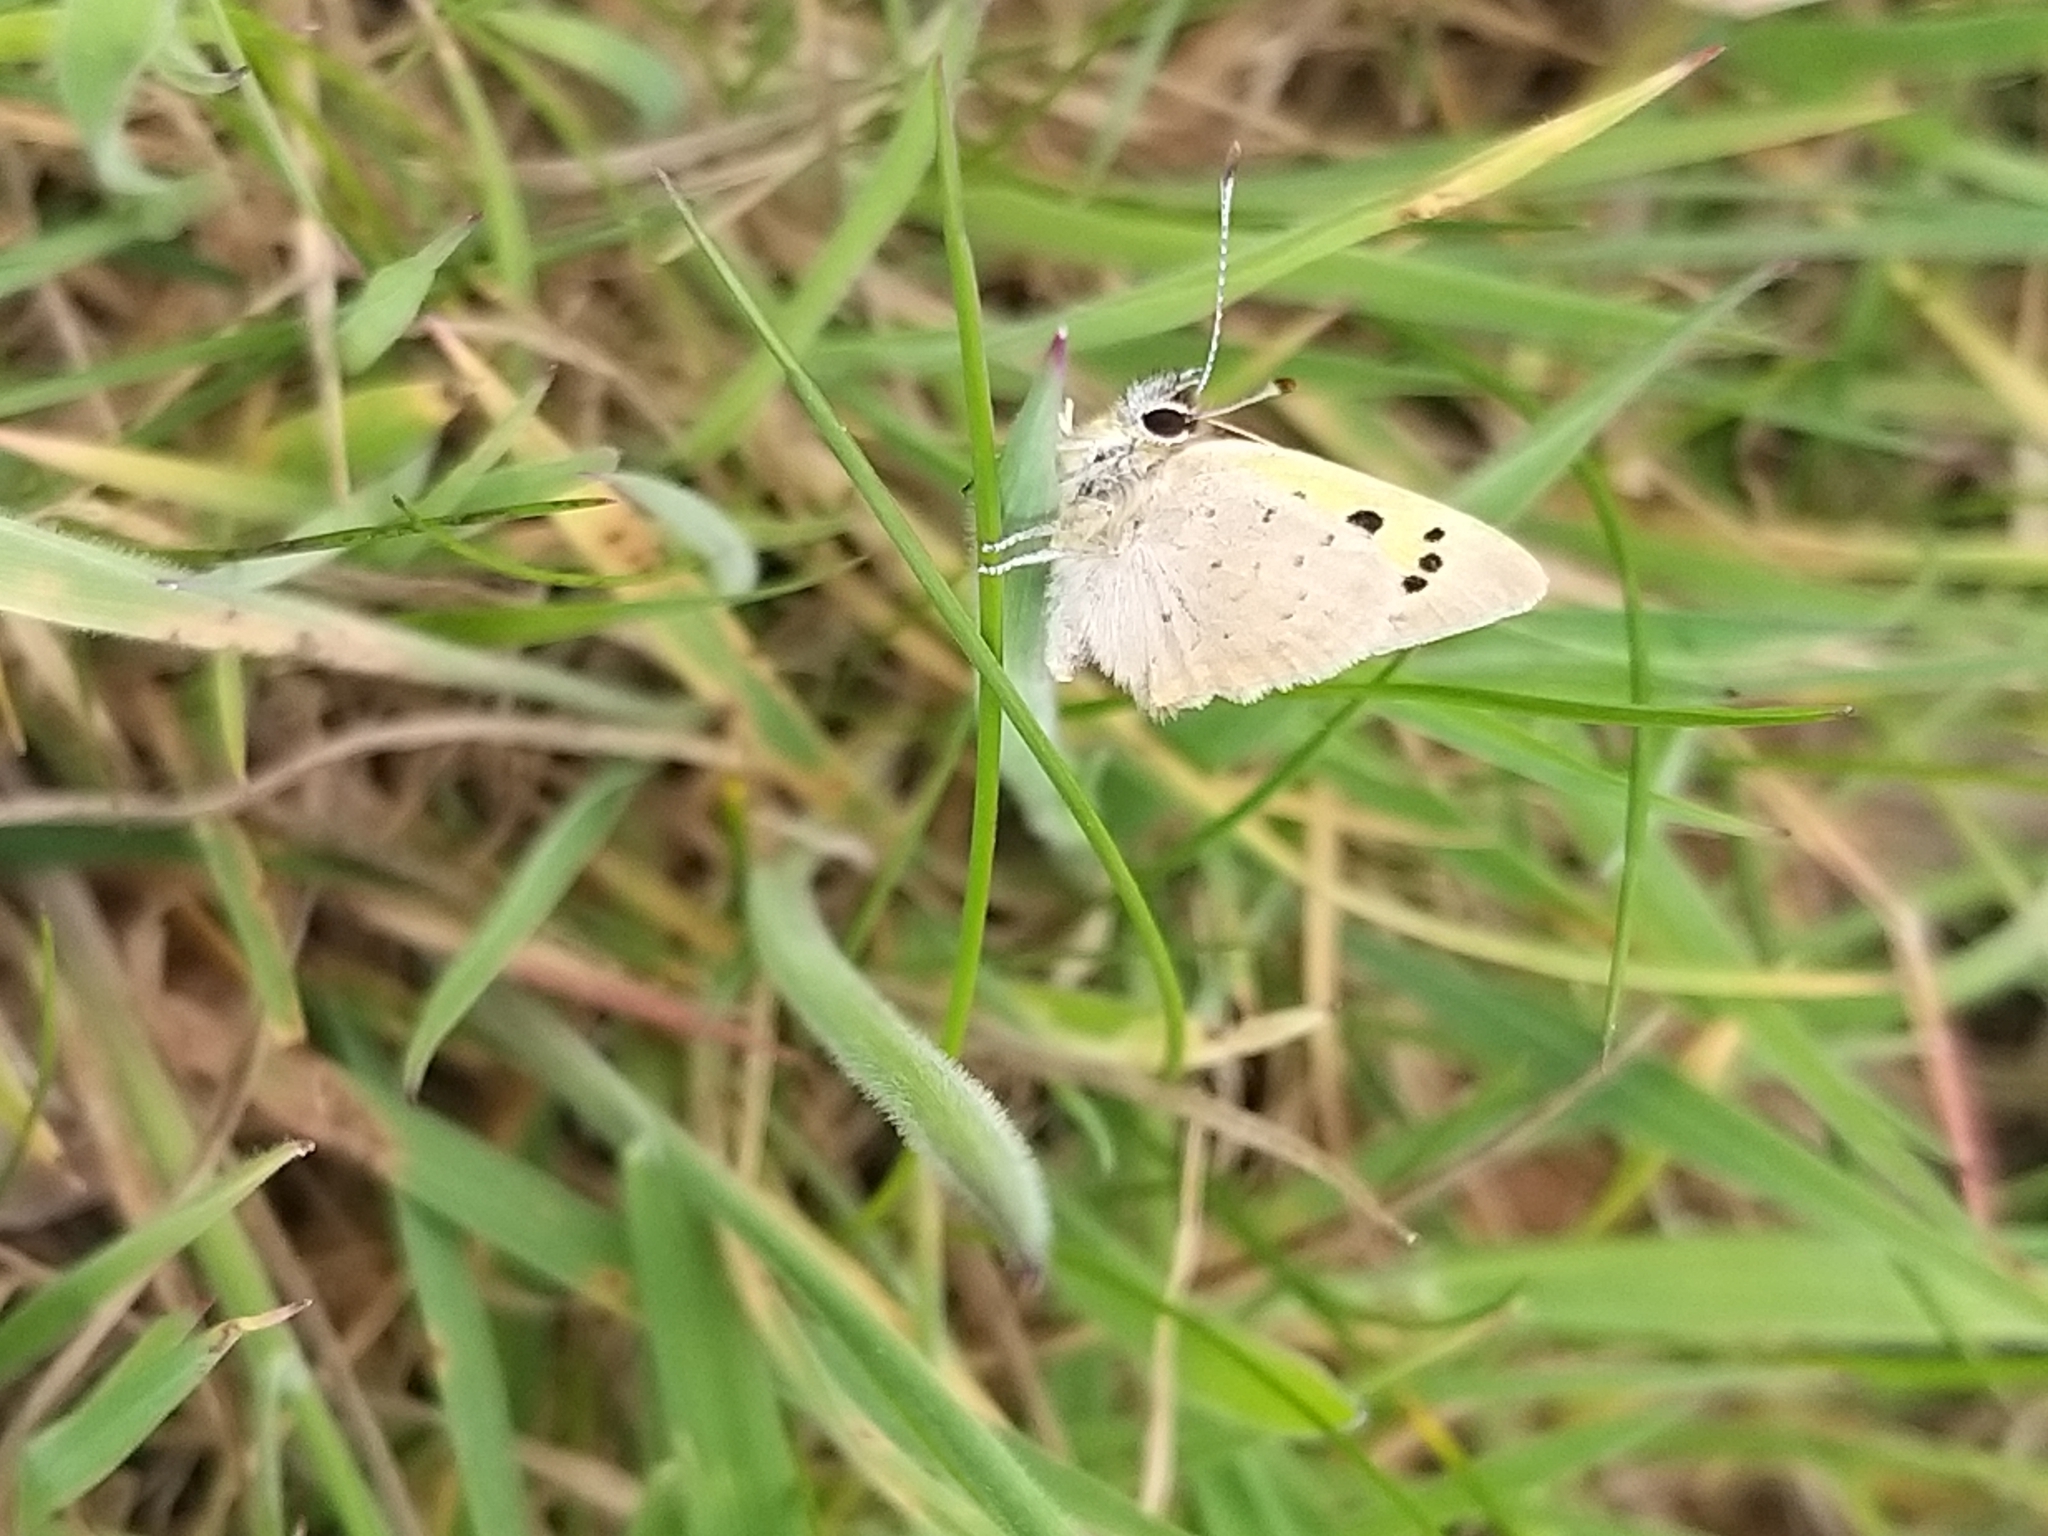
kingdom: Animalia
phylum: Arthropoda
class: Insecta
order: Lepidoptera
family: Lycaenidae
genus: Lycaena
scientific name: Lycaena phlaeas
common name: Small copper
